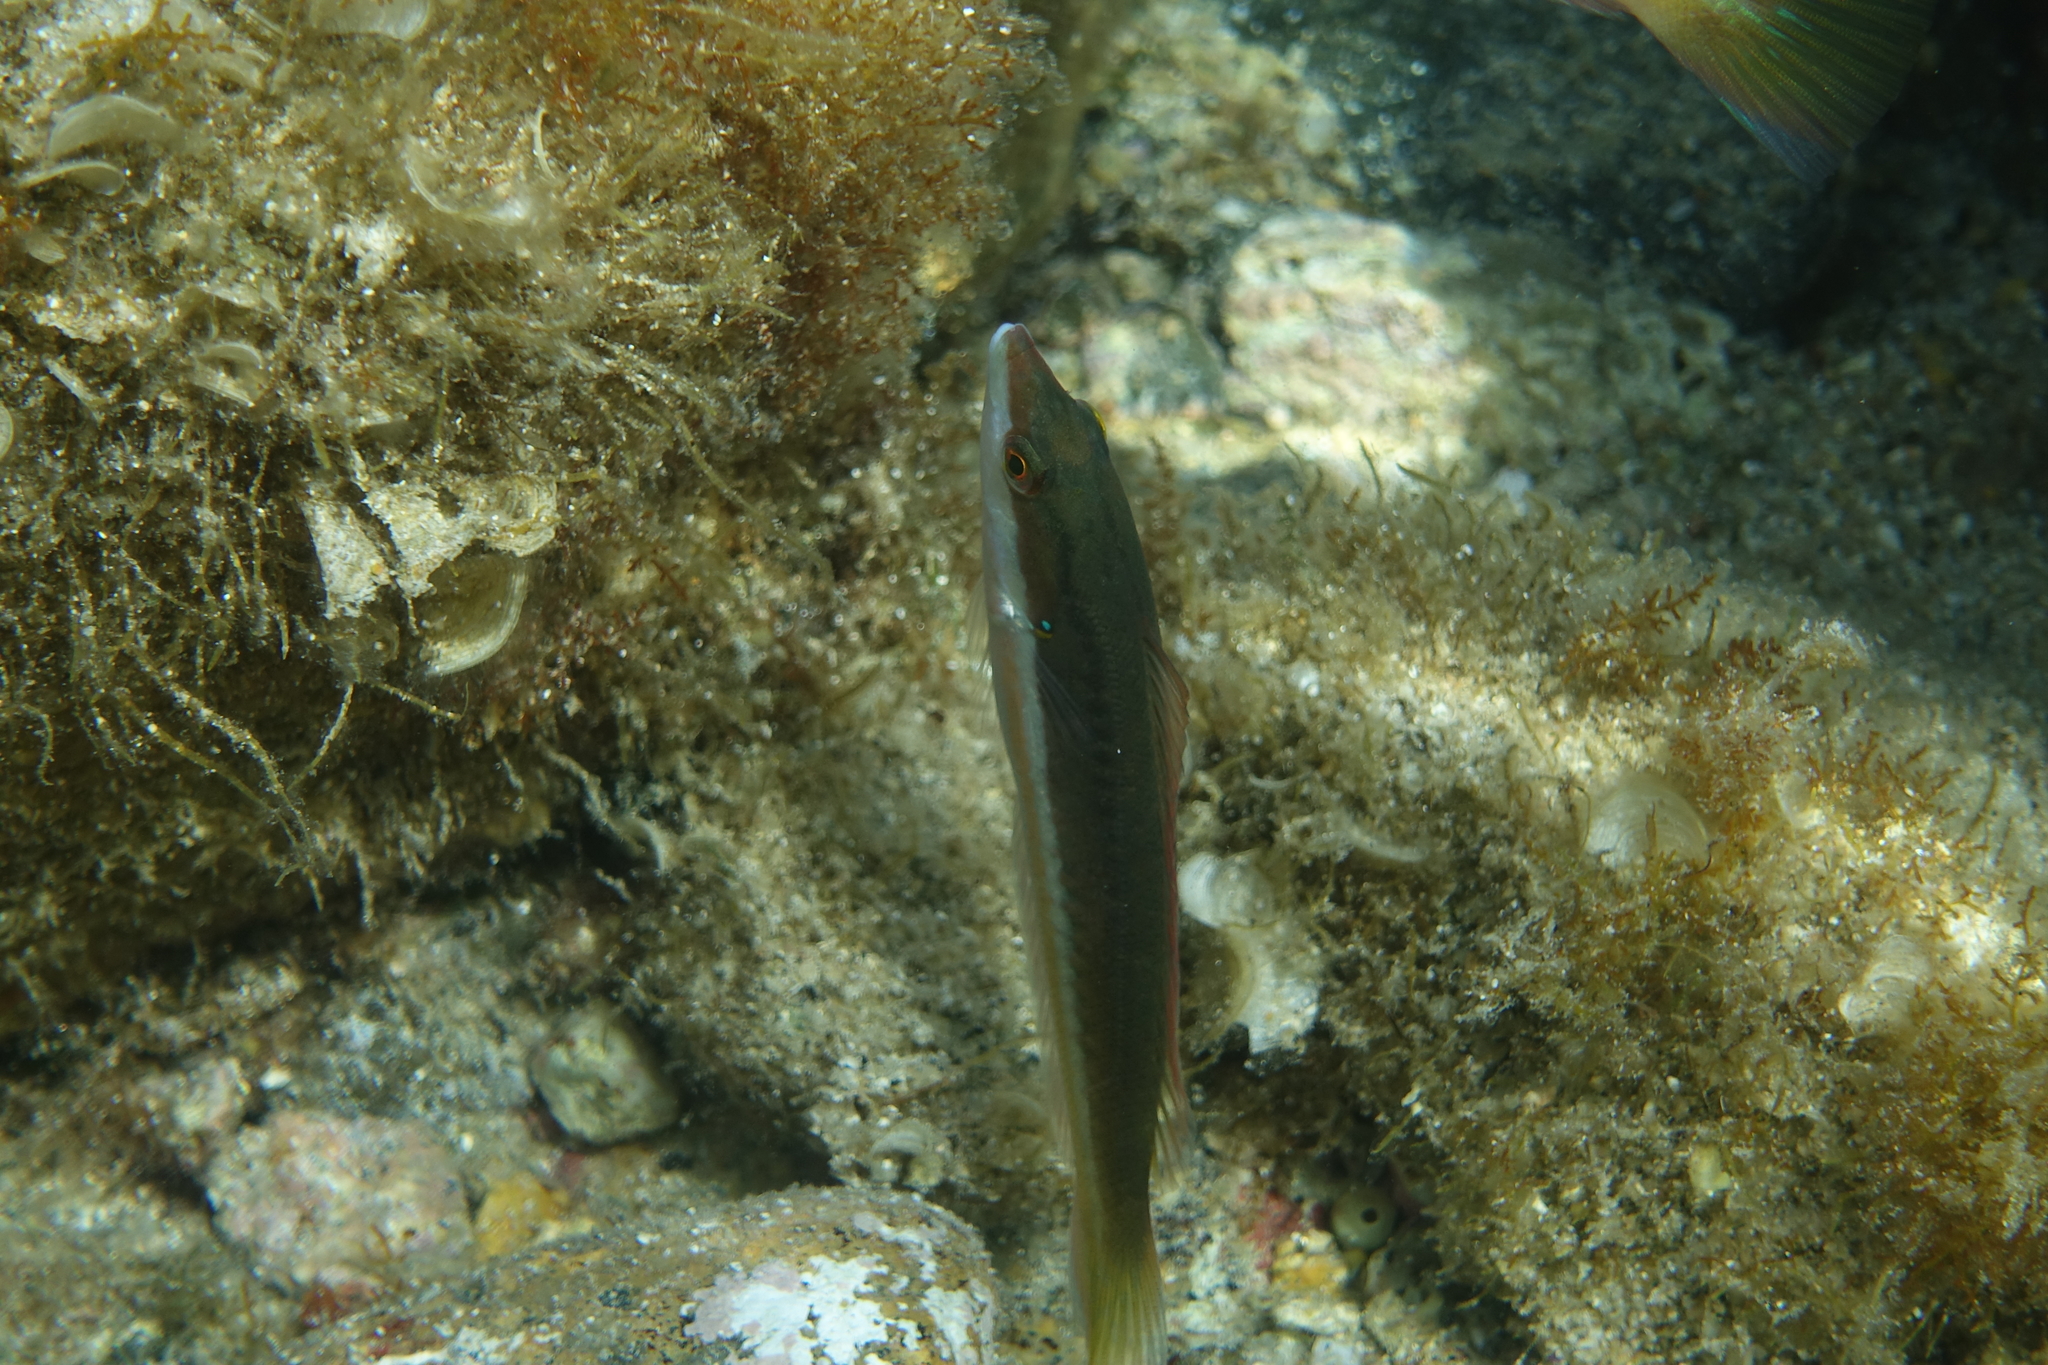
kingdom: Animalia
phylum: Chordata
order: Perciformes
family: Labridae
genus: Coris
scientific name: Coris julis
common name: Rainbow wrasse
